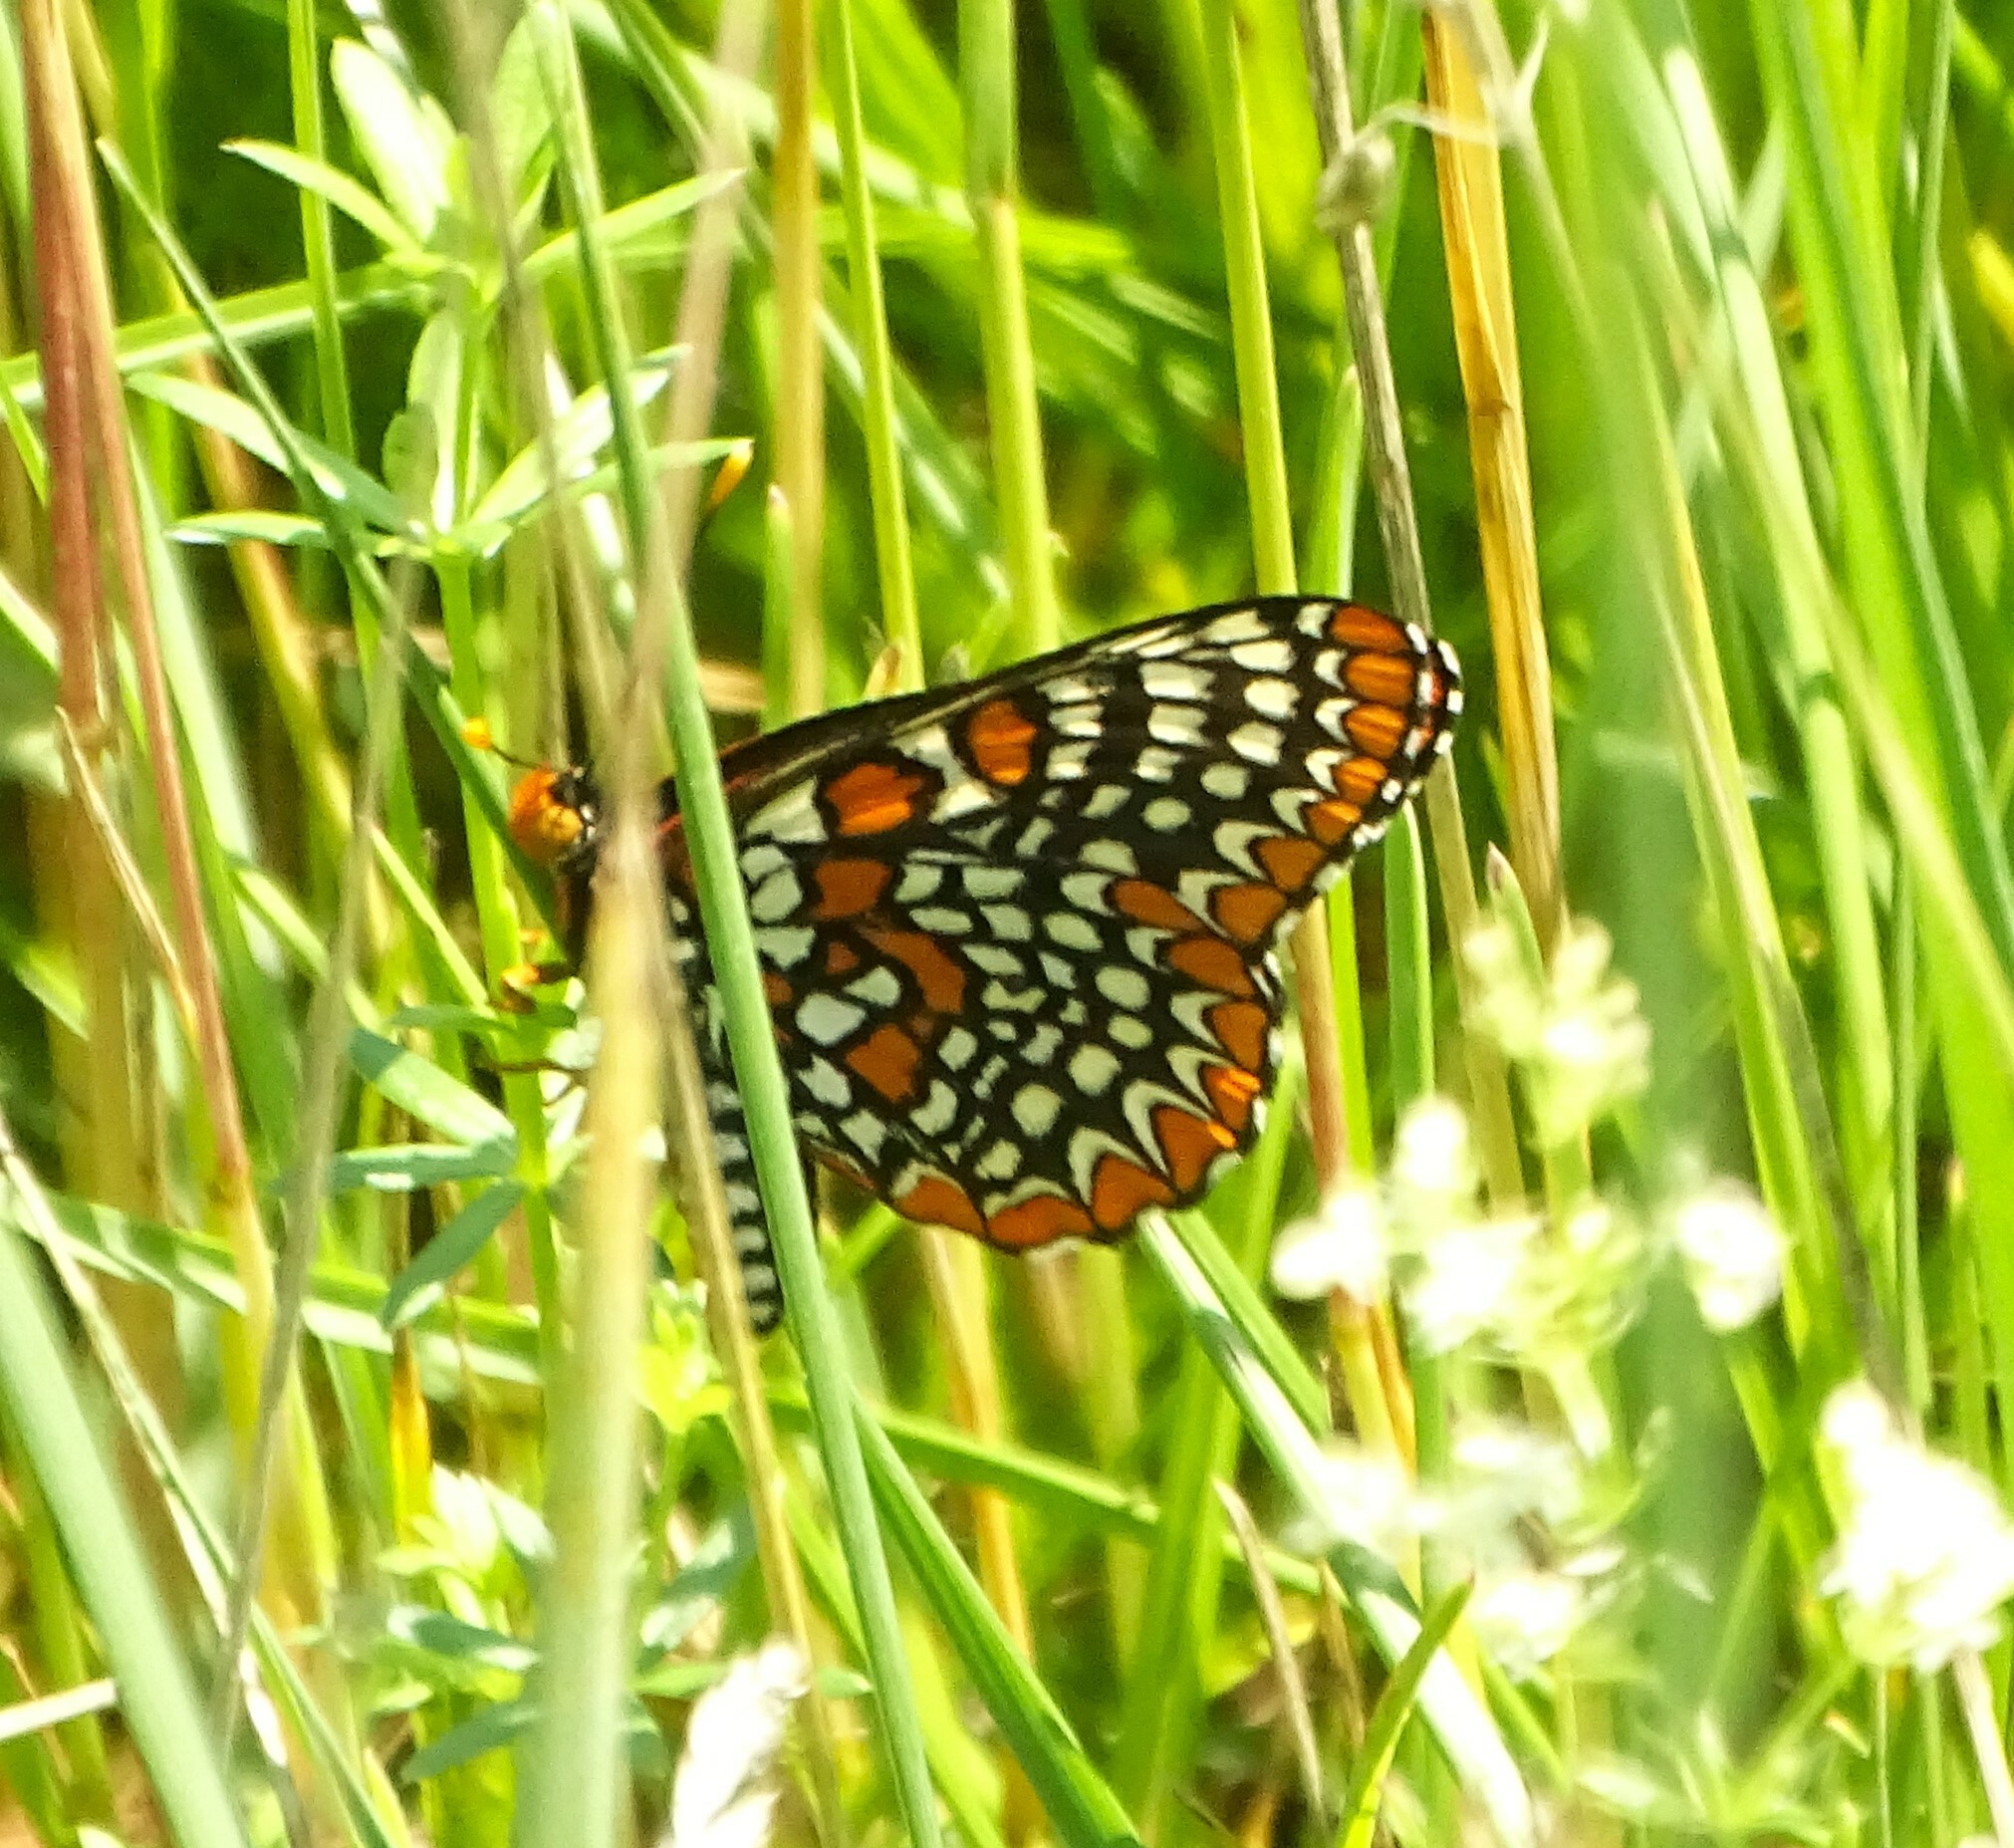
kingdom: Animalia
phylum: Arthropoda
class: Insecta
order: Lepidoptera
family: Nymphalidae
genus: Euphydryas
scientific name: Euphydryas phaeton
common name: Baltimore checkerspot
